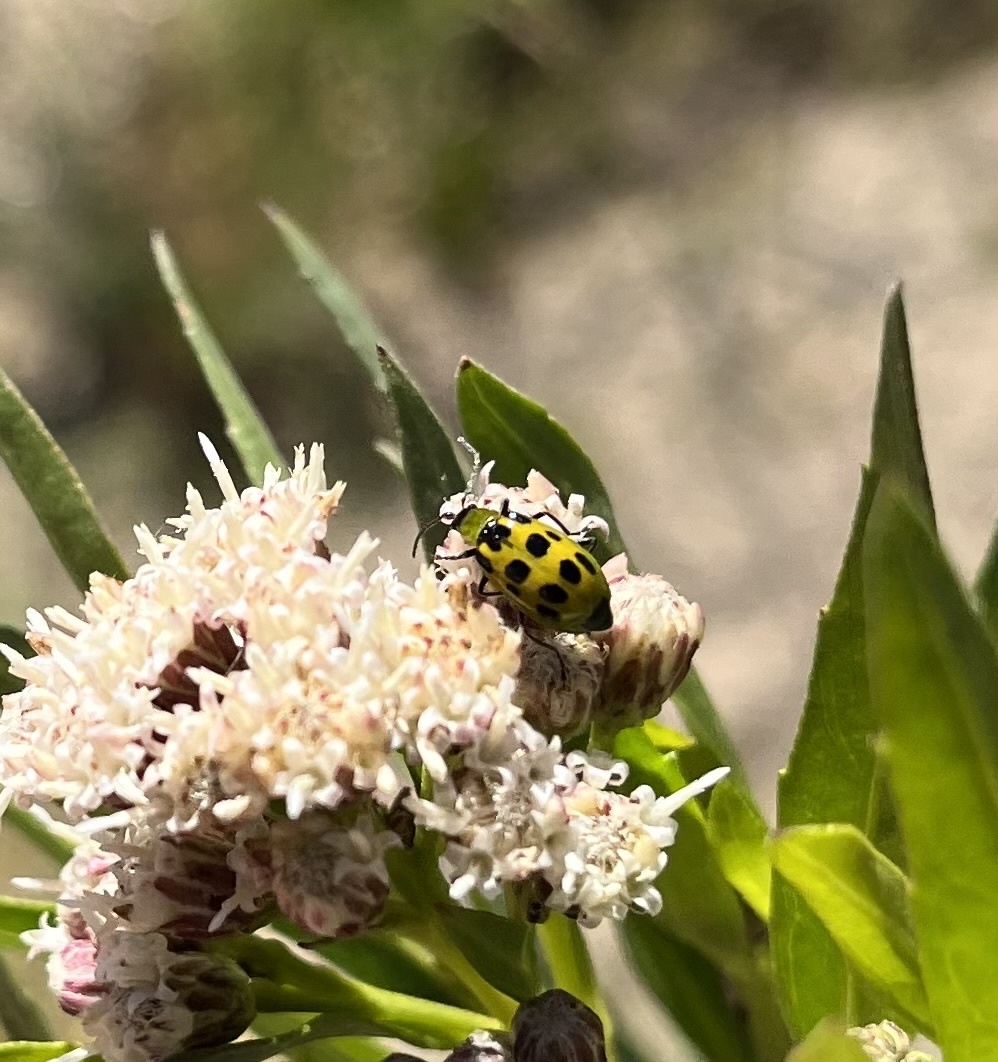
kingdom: Animalia
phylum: Arthropoda
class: Insecta
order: Coleoptera
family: Chrysomelidae
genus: Diabrotica
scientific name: Diabrotica undecimpunctata
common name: Spotted cucumber beetle
